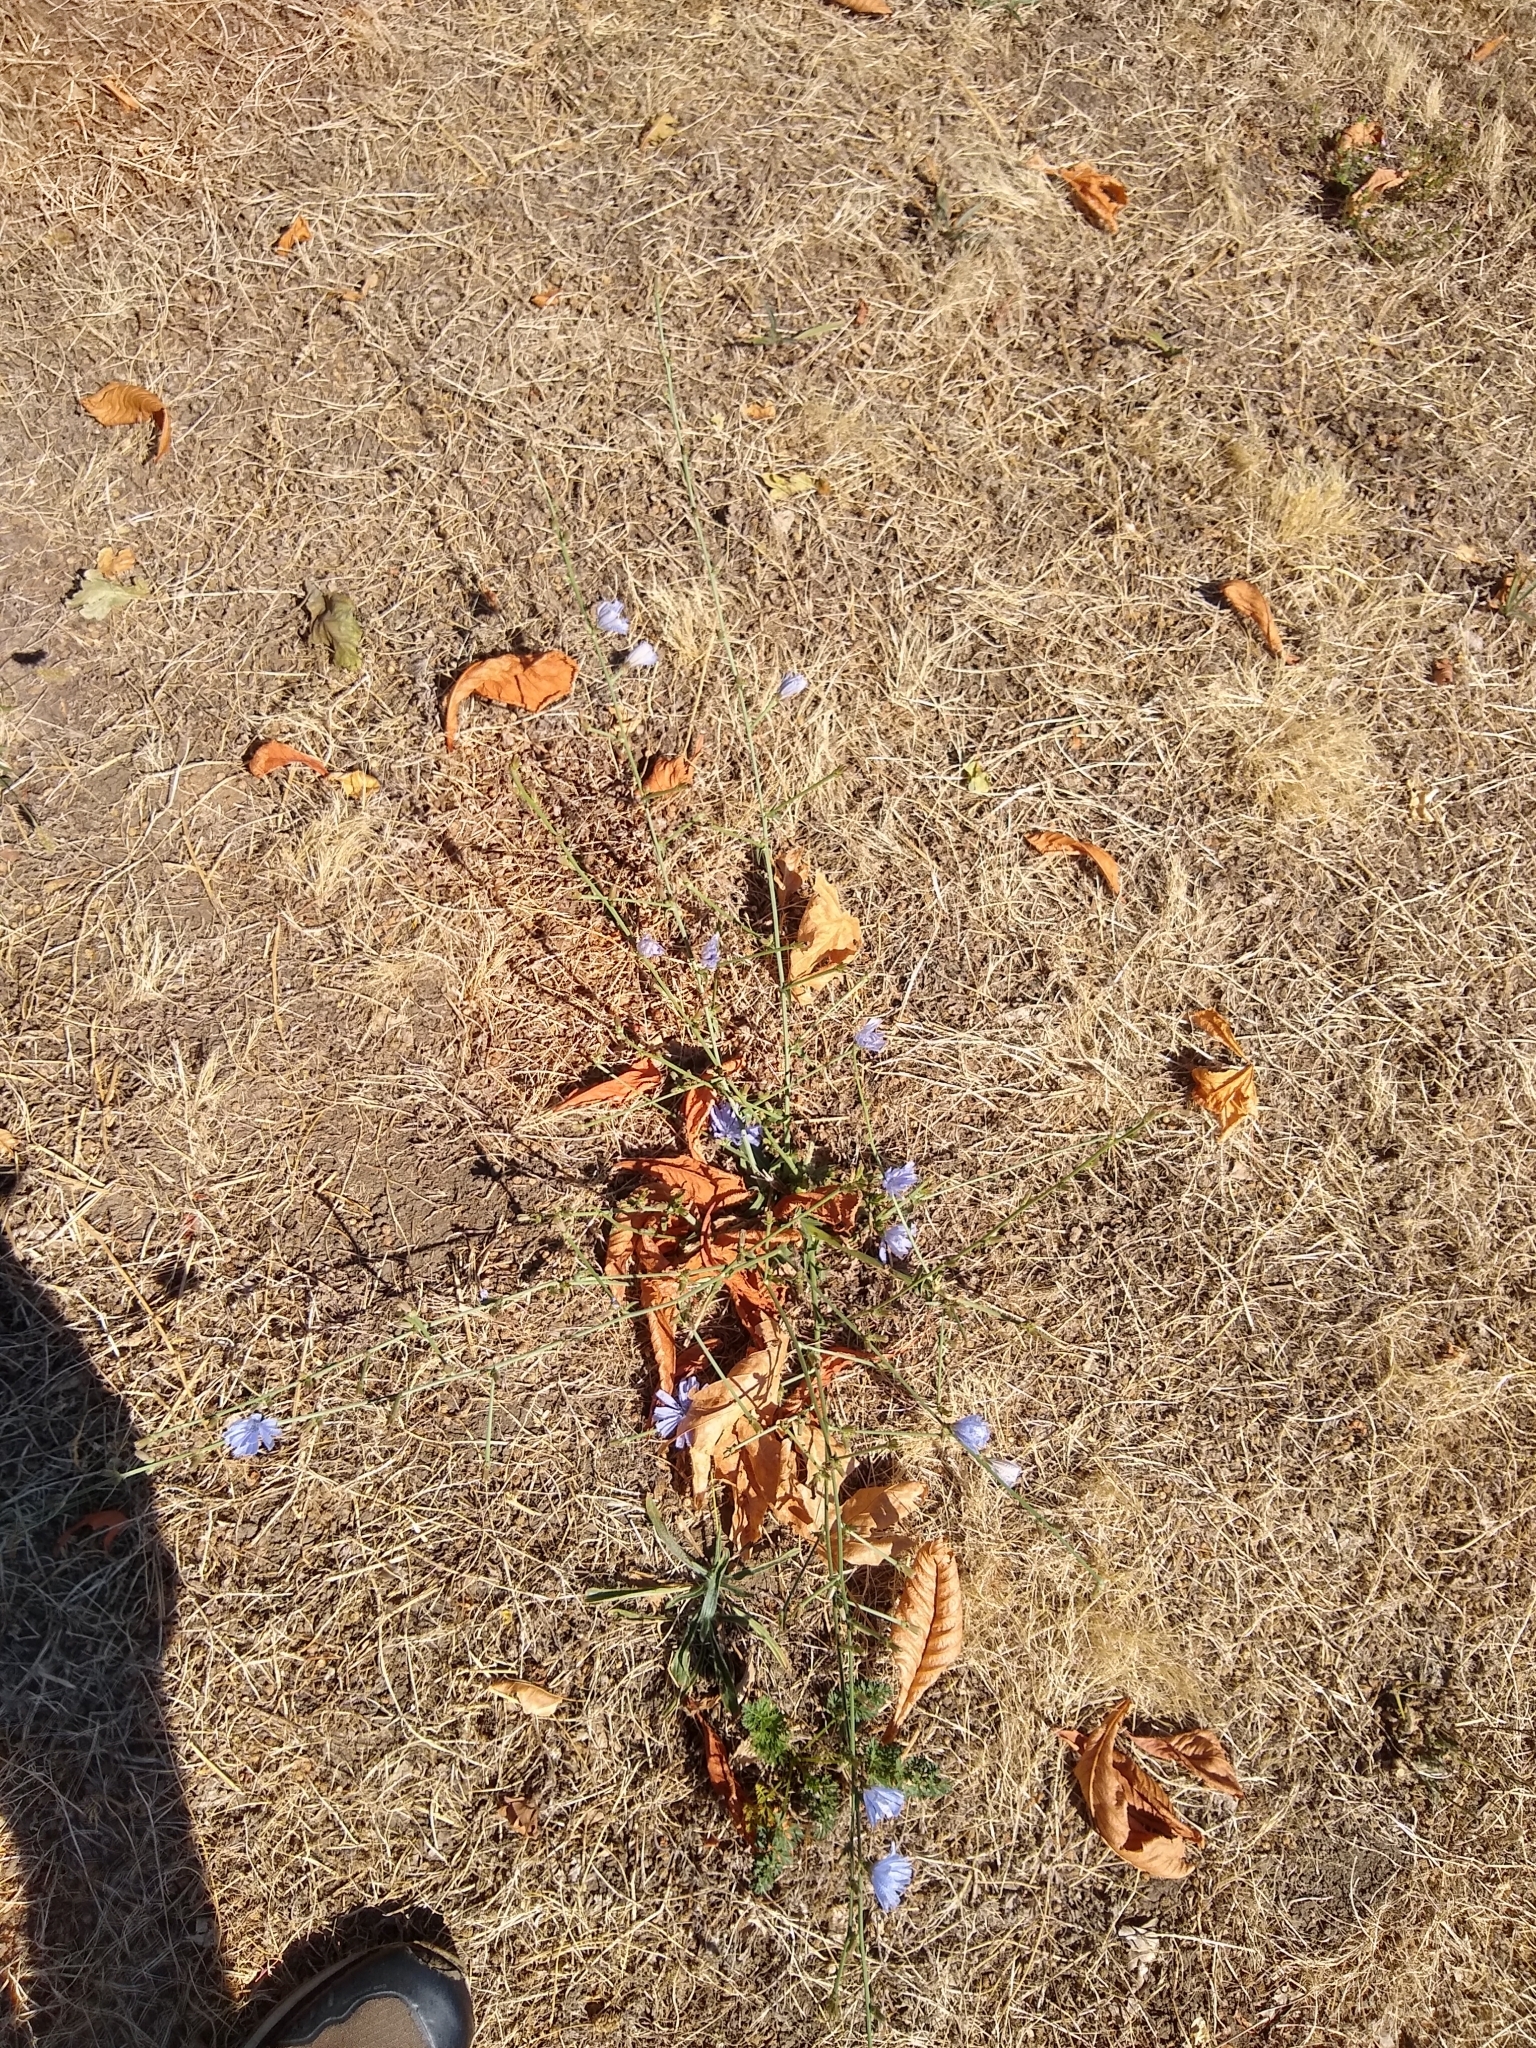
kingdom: Plantae
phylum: Tracheophyta
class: Magnoliopsida
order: Asterales
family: Asteraceae
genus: Cichorium
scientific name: Cichorium intybus
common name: Chicory
